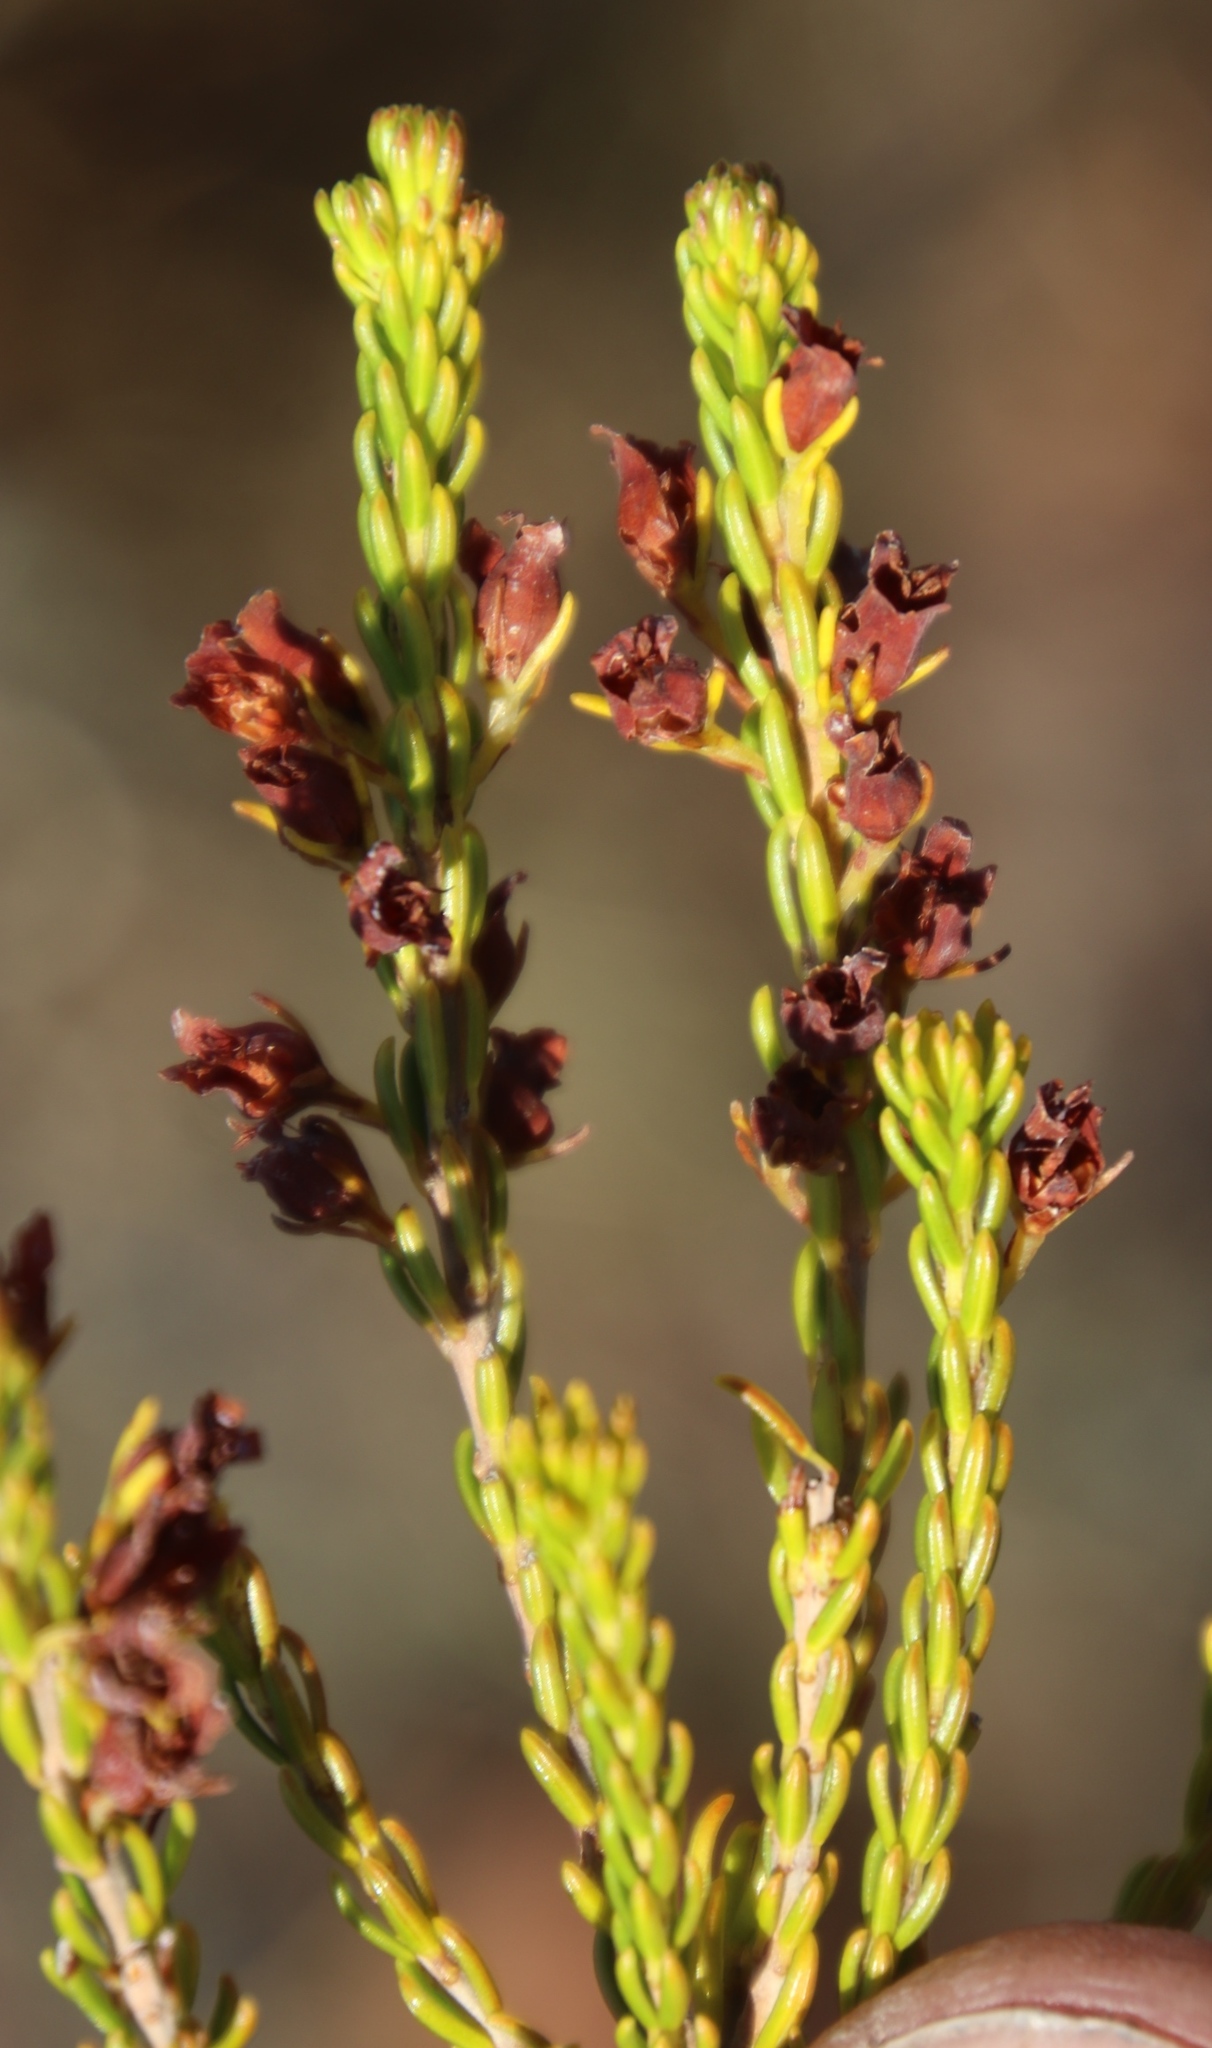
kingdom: Plantae
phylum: Tracheophyta
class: Magnoliopsida
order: Ericales
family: Ericaceae
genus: Erica
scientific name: Erica parilis
